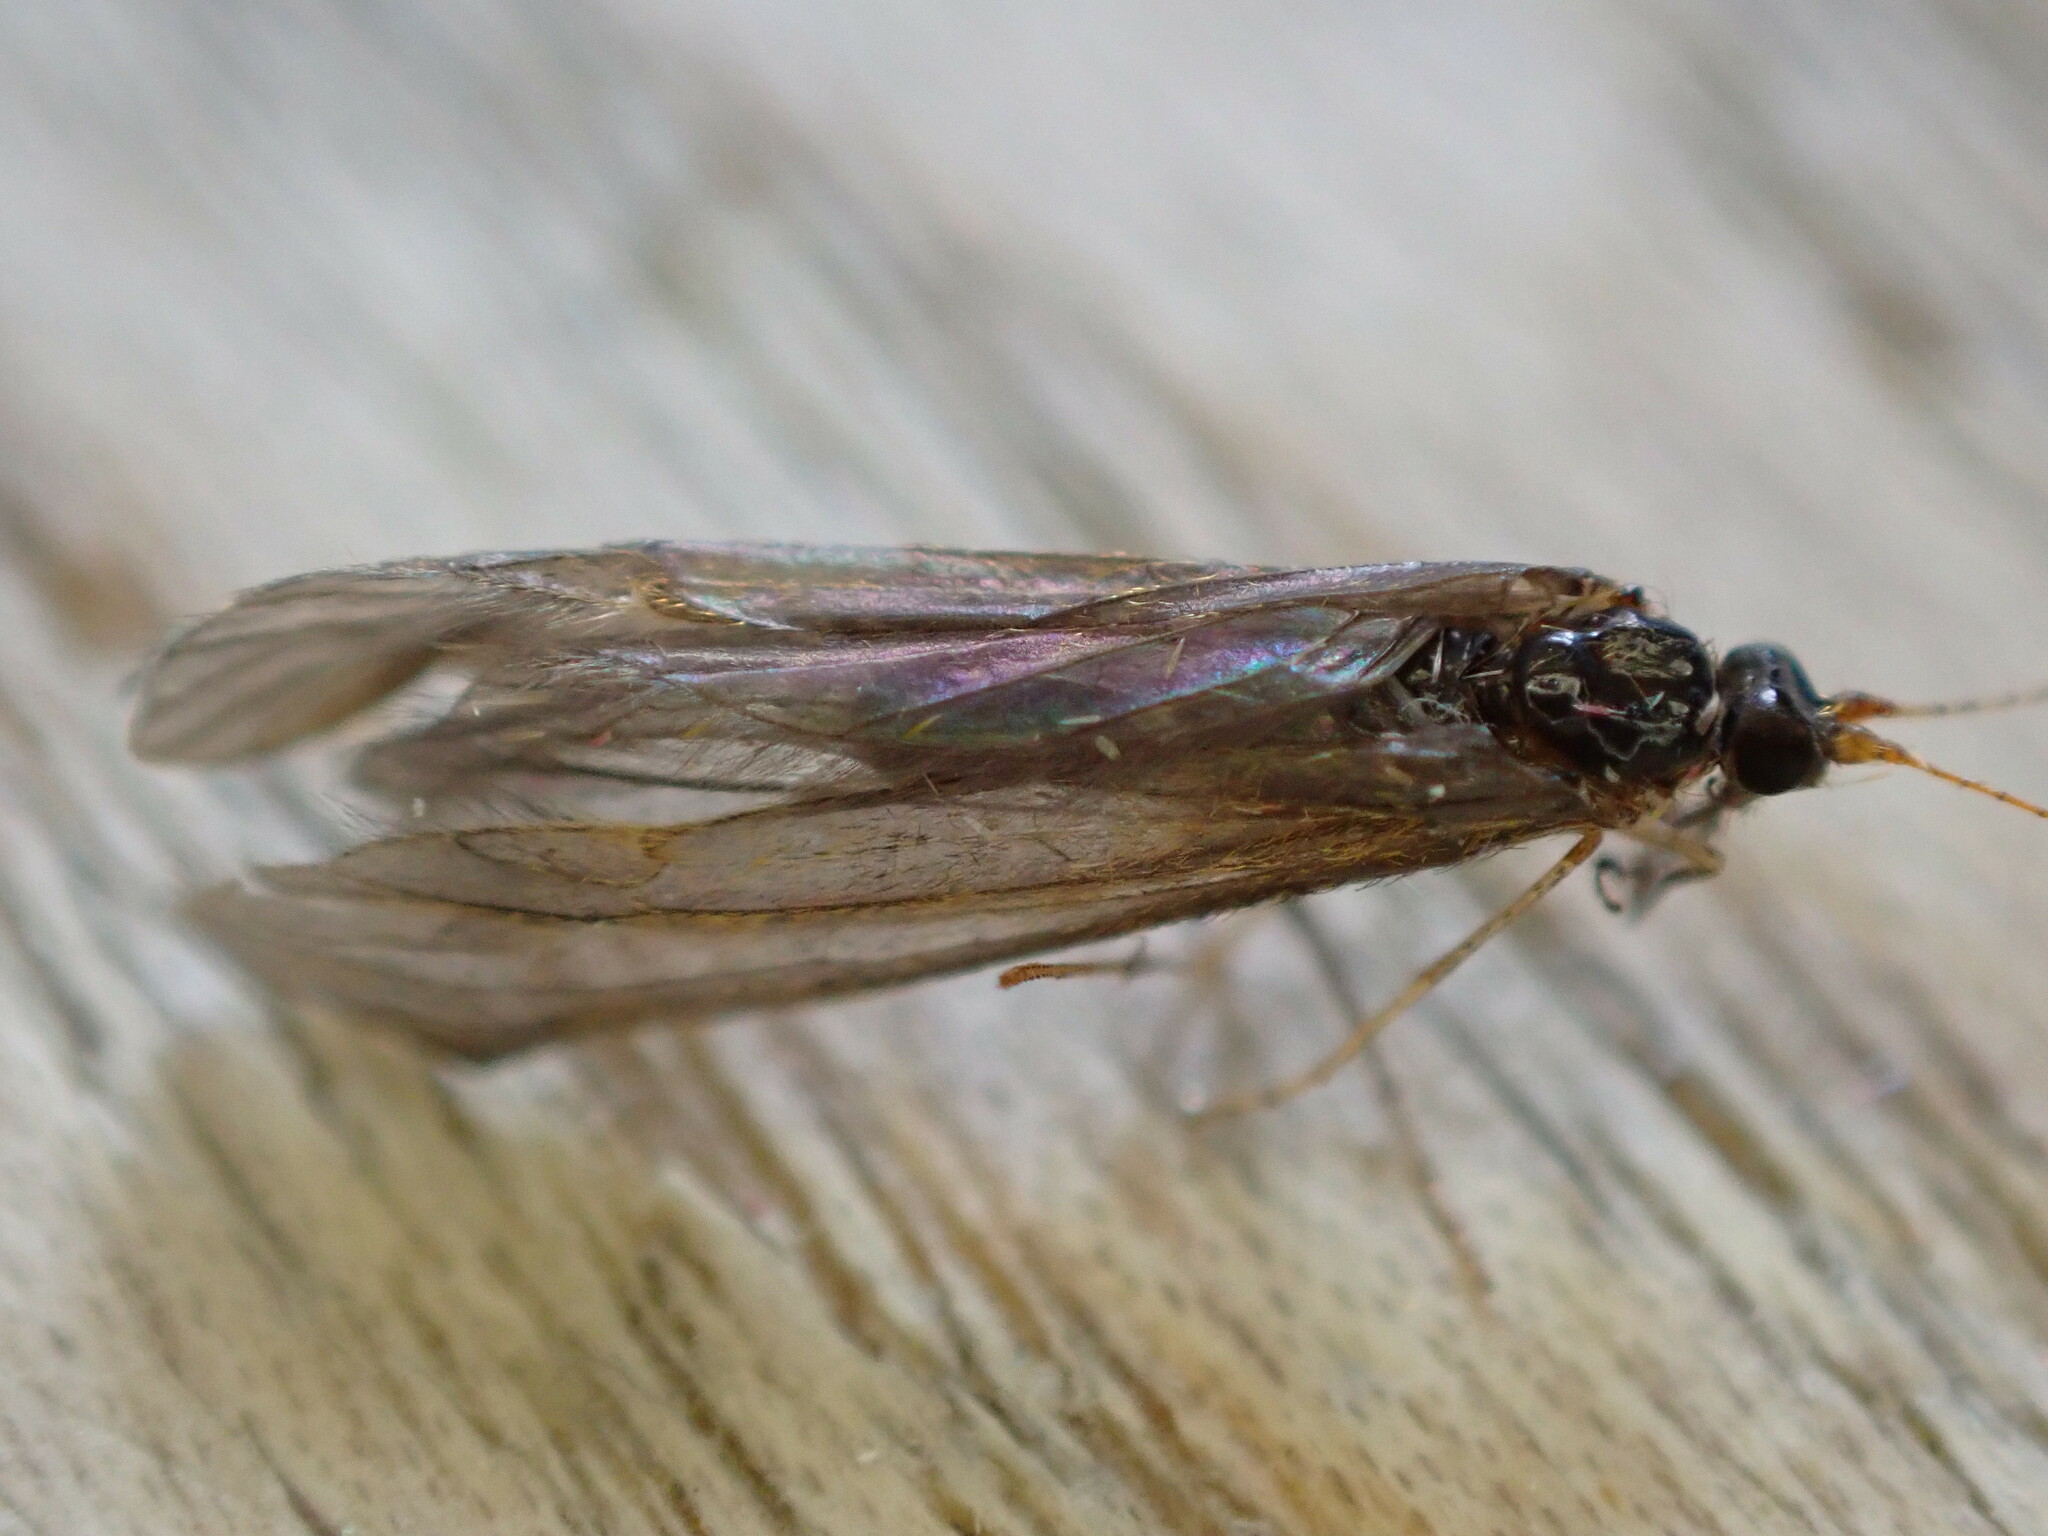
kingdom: Animalia
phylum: Arthropoda
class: Insecta
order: Trichoptera
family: Leptoceridae
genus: Mystacides
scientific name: Mystacides longicornis
